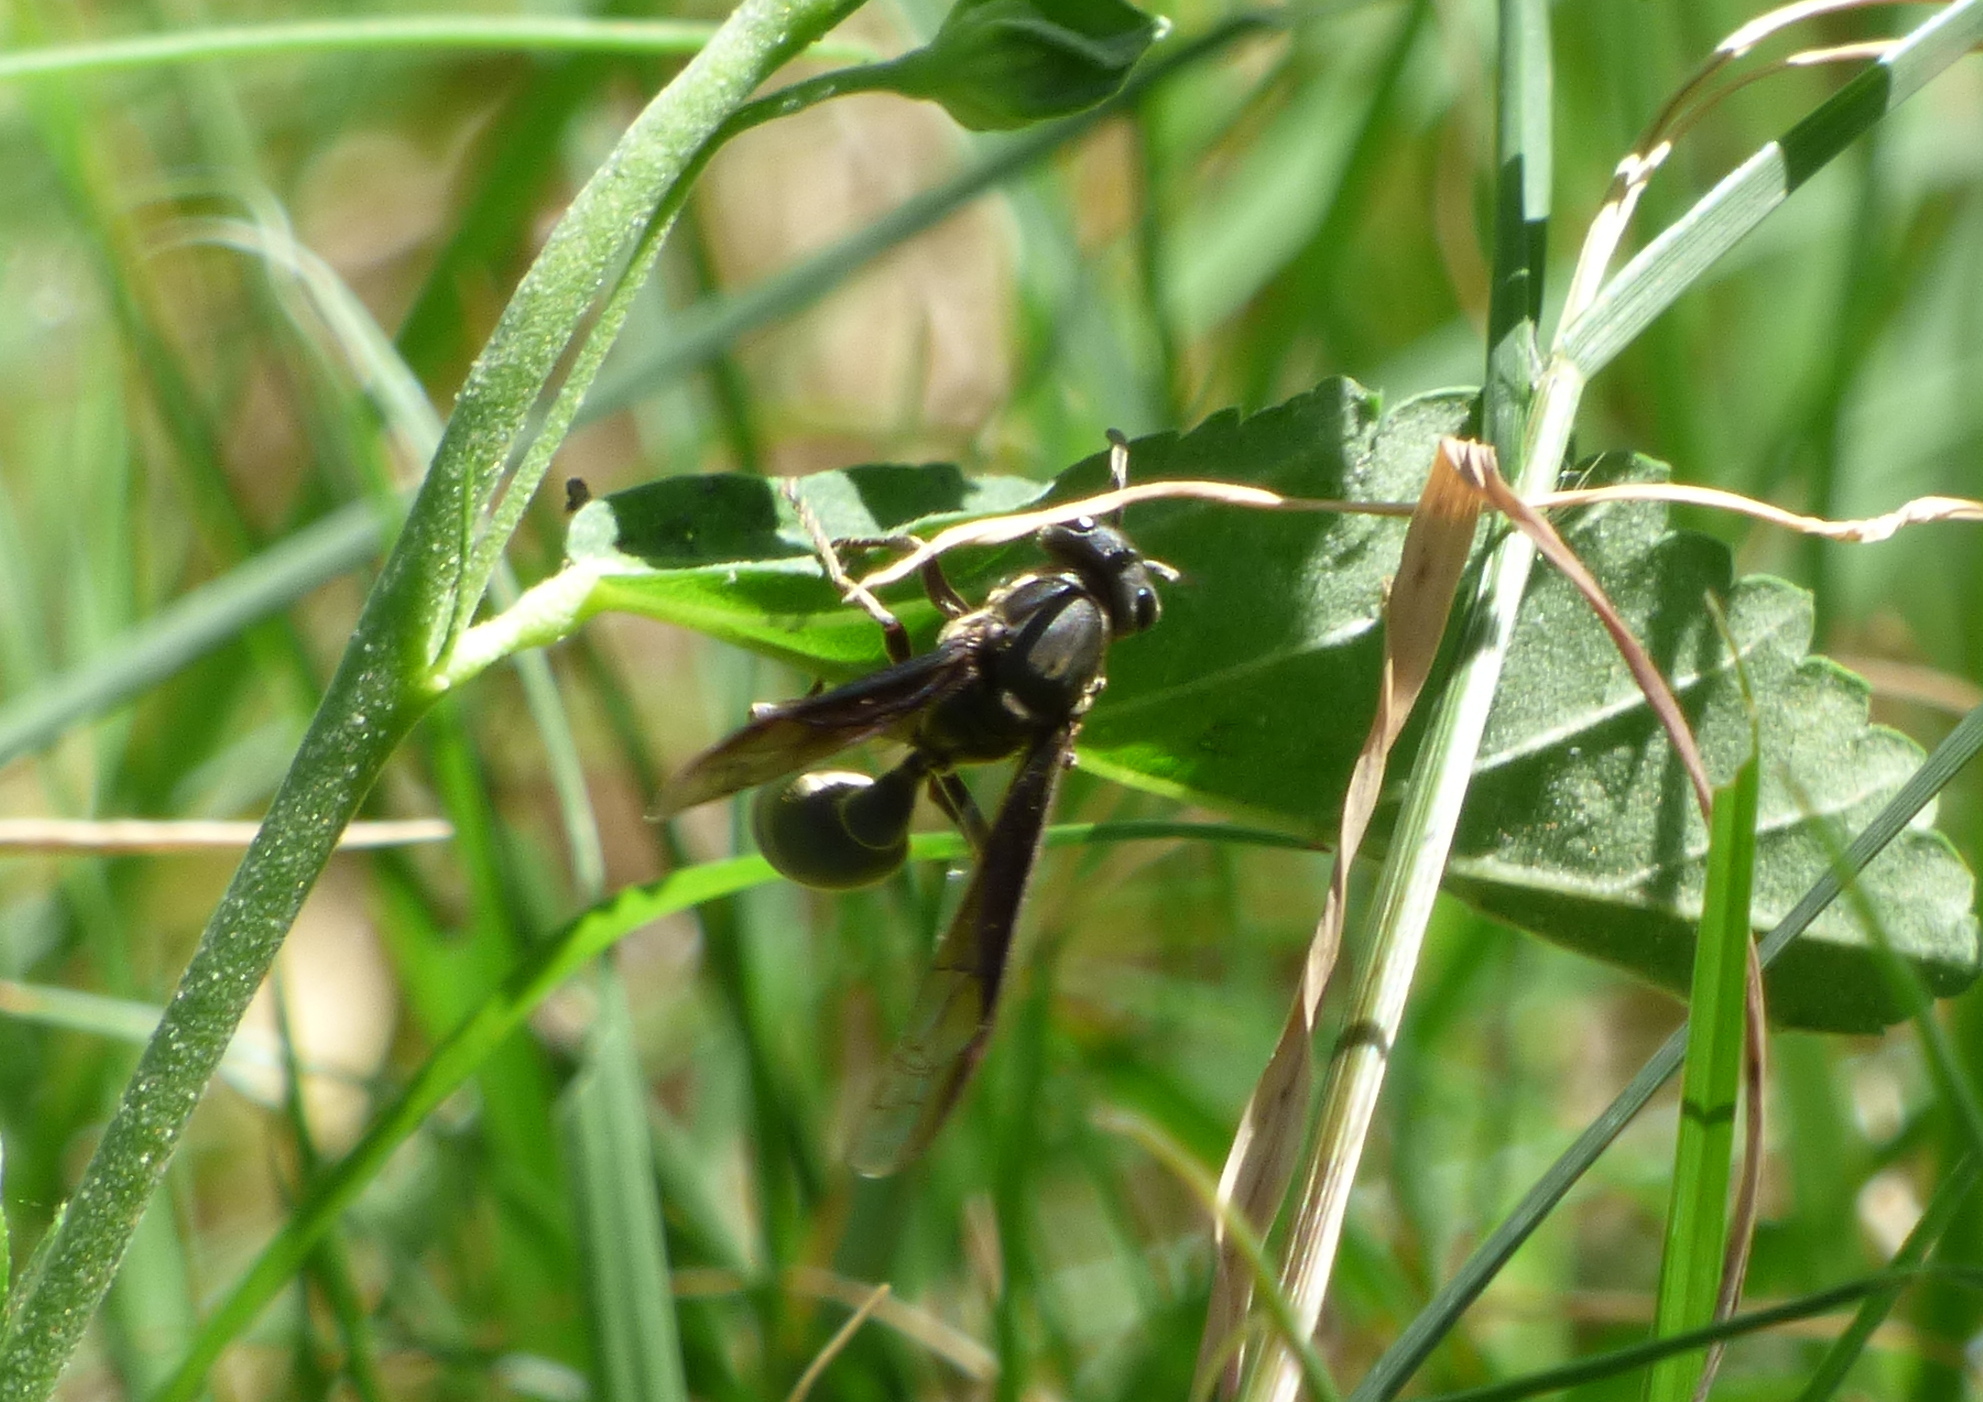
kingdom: Animalia
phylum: Arthropoda
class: Insecta
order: Hymenoptera
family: Eumenidae
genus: Polybia
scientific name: Polybia ignobilis
